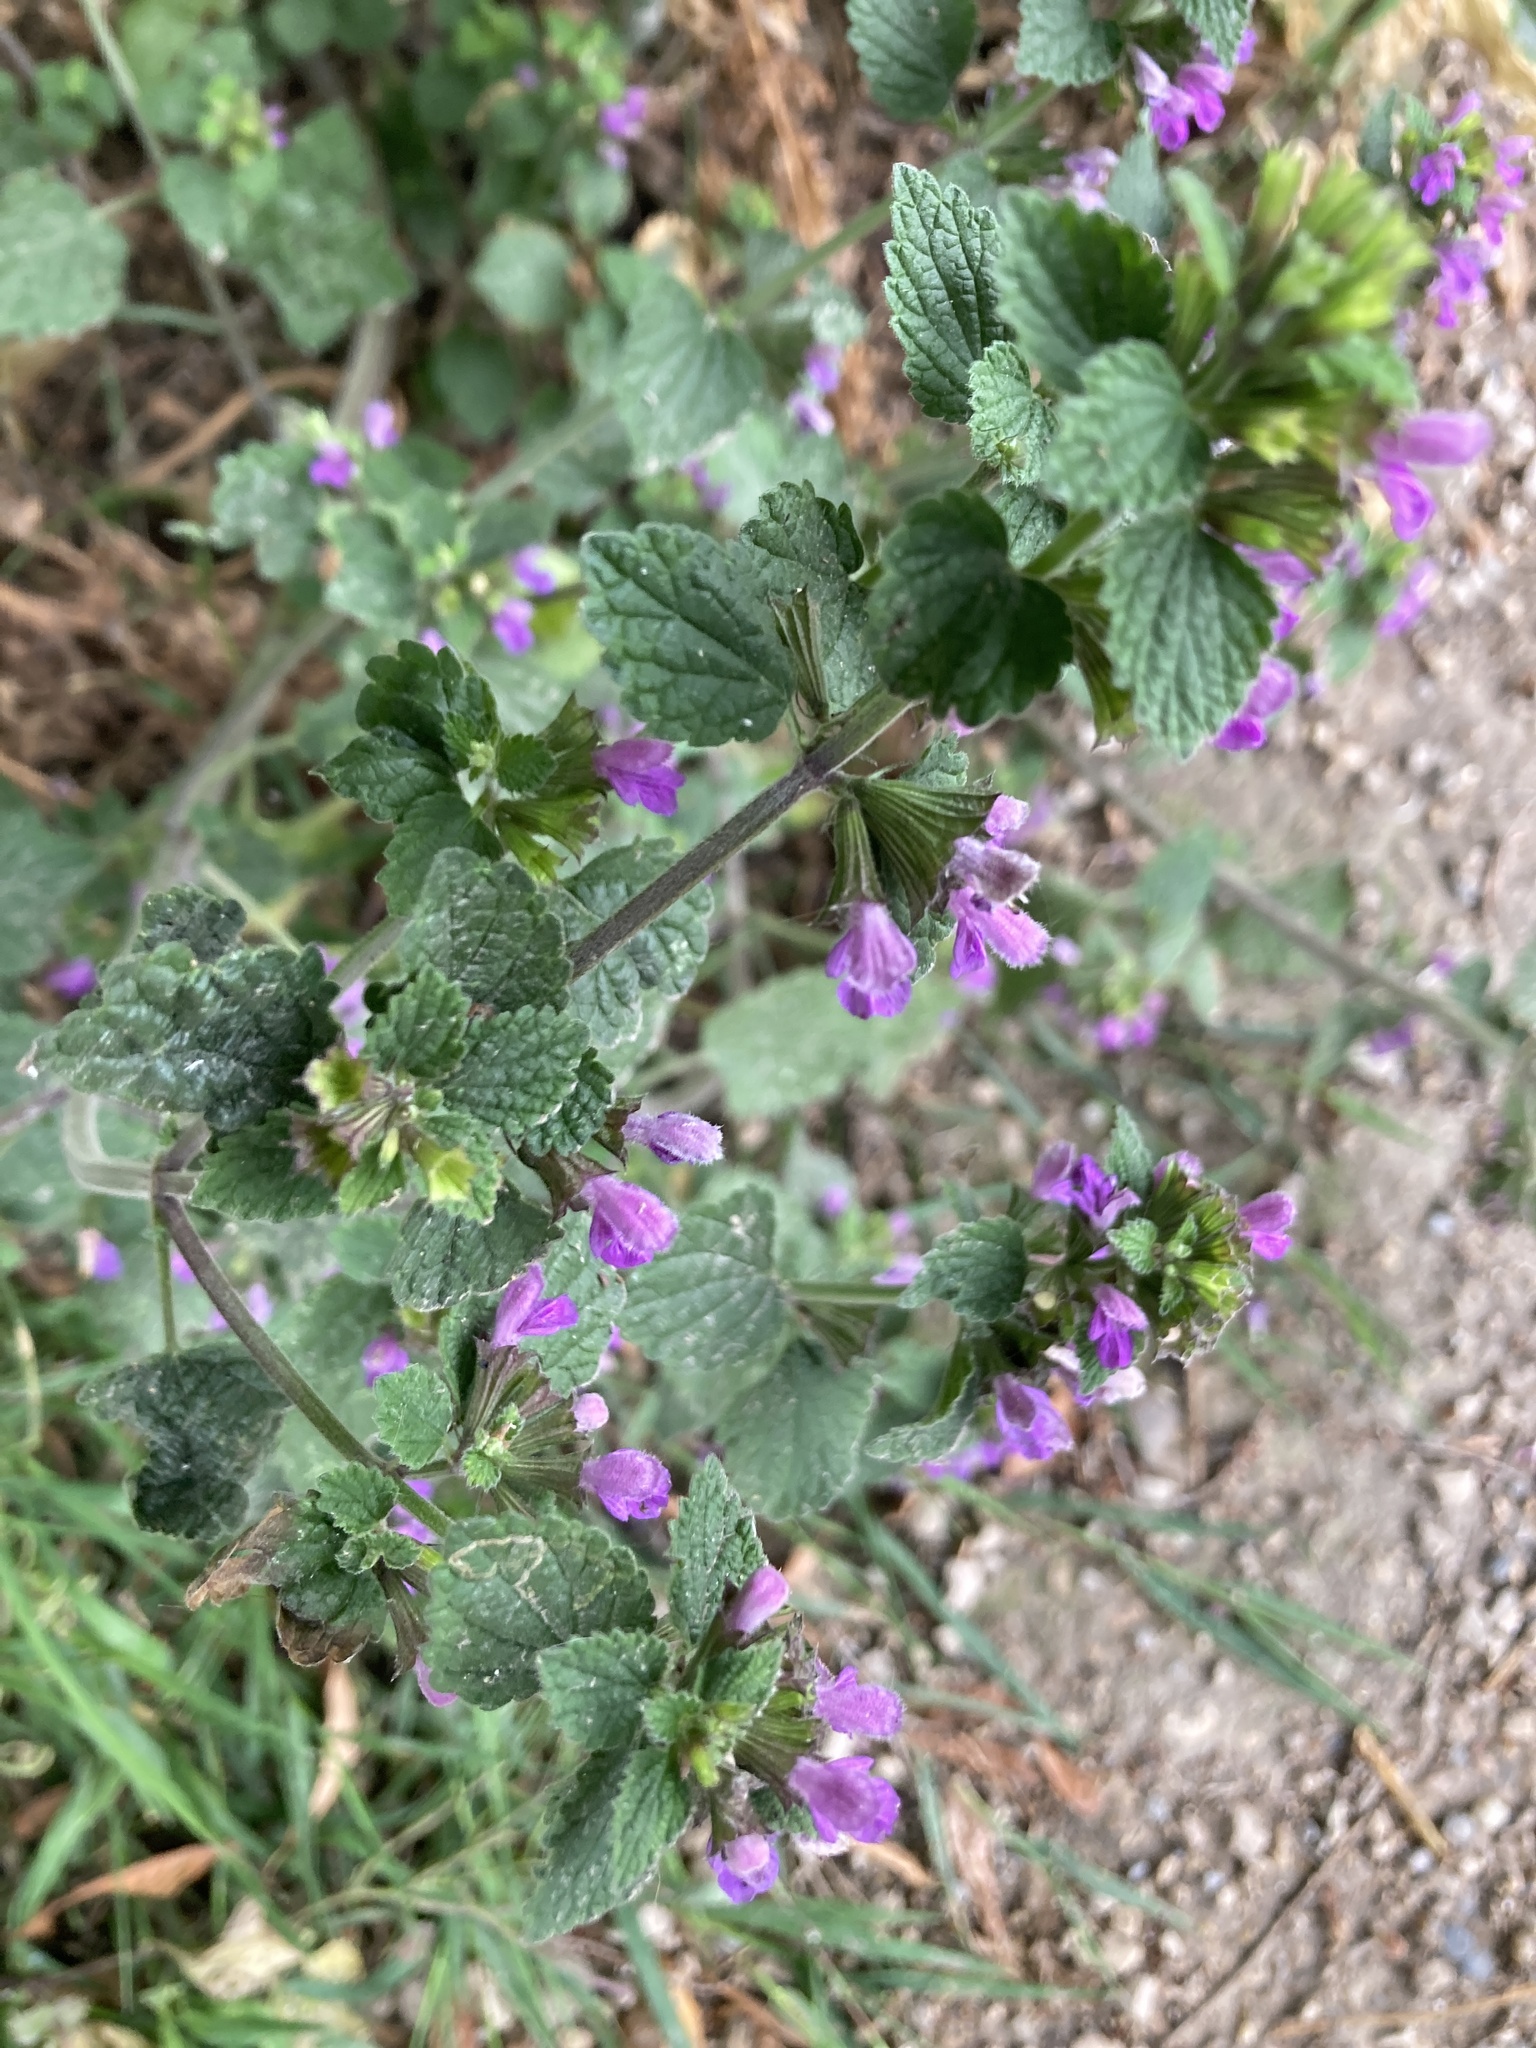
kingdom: Plantae
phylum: Tracheophyta
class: Magnoliopsida
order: Lamiales
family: Lamiaceae
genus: Ballota
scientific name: Ballota nigra
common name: Black horehound
